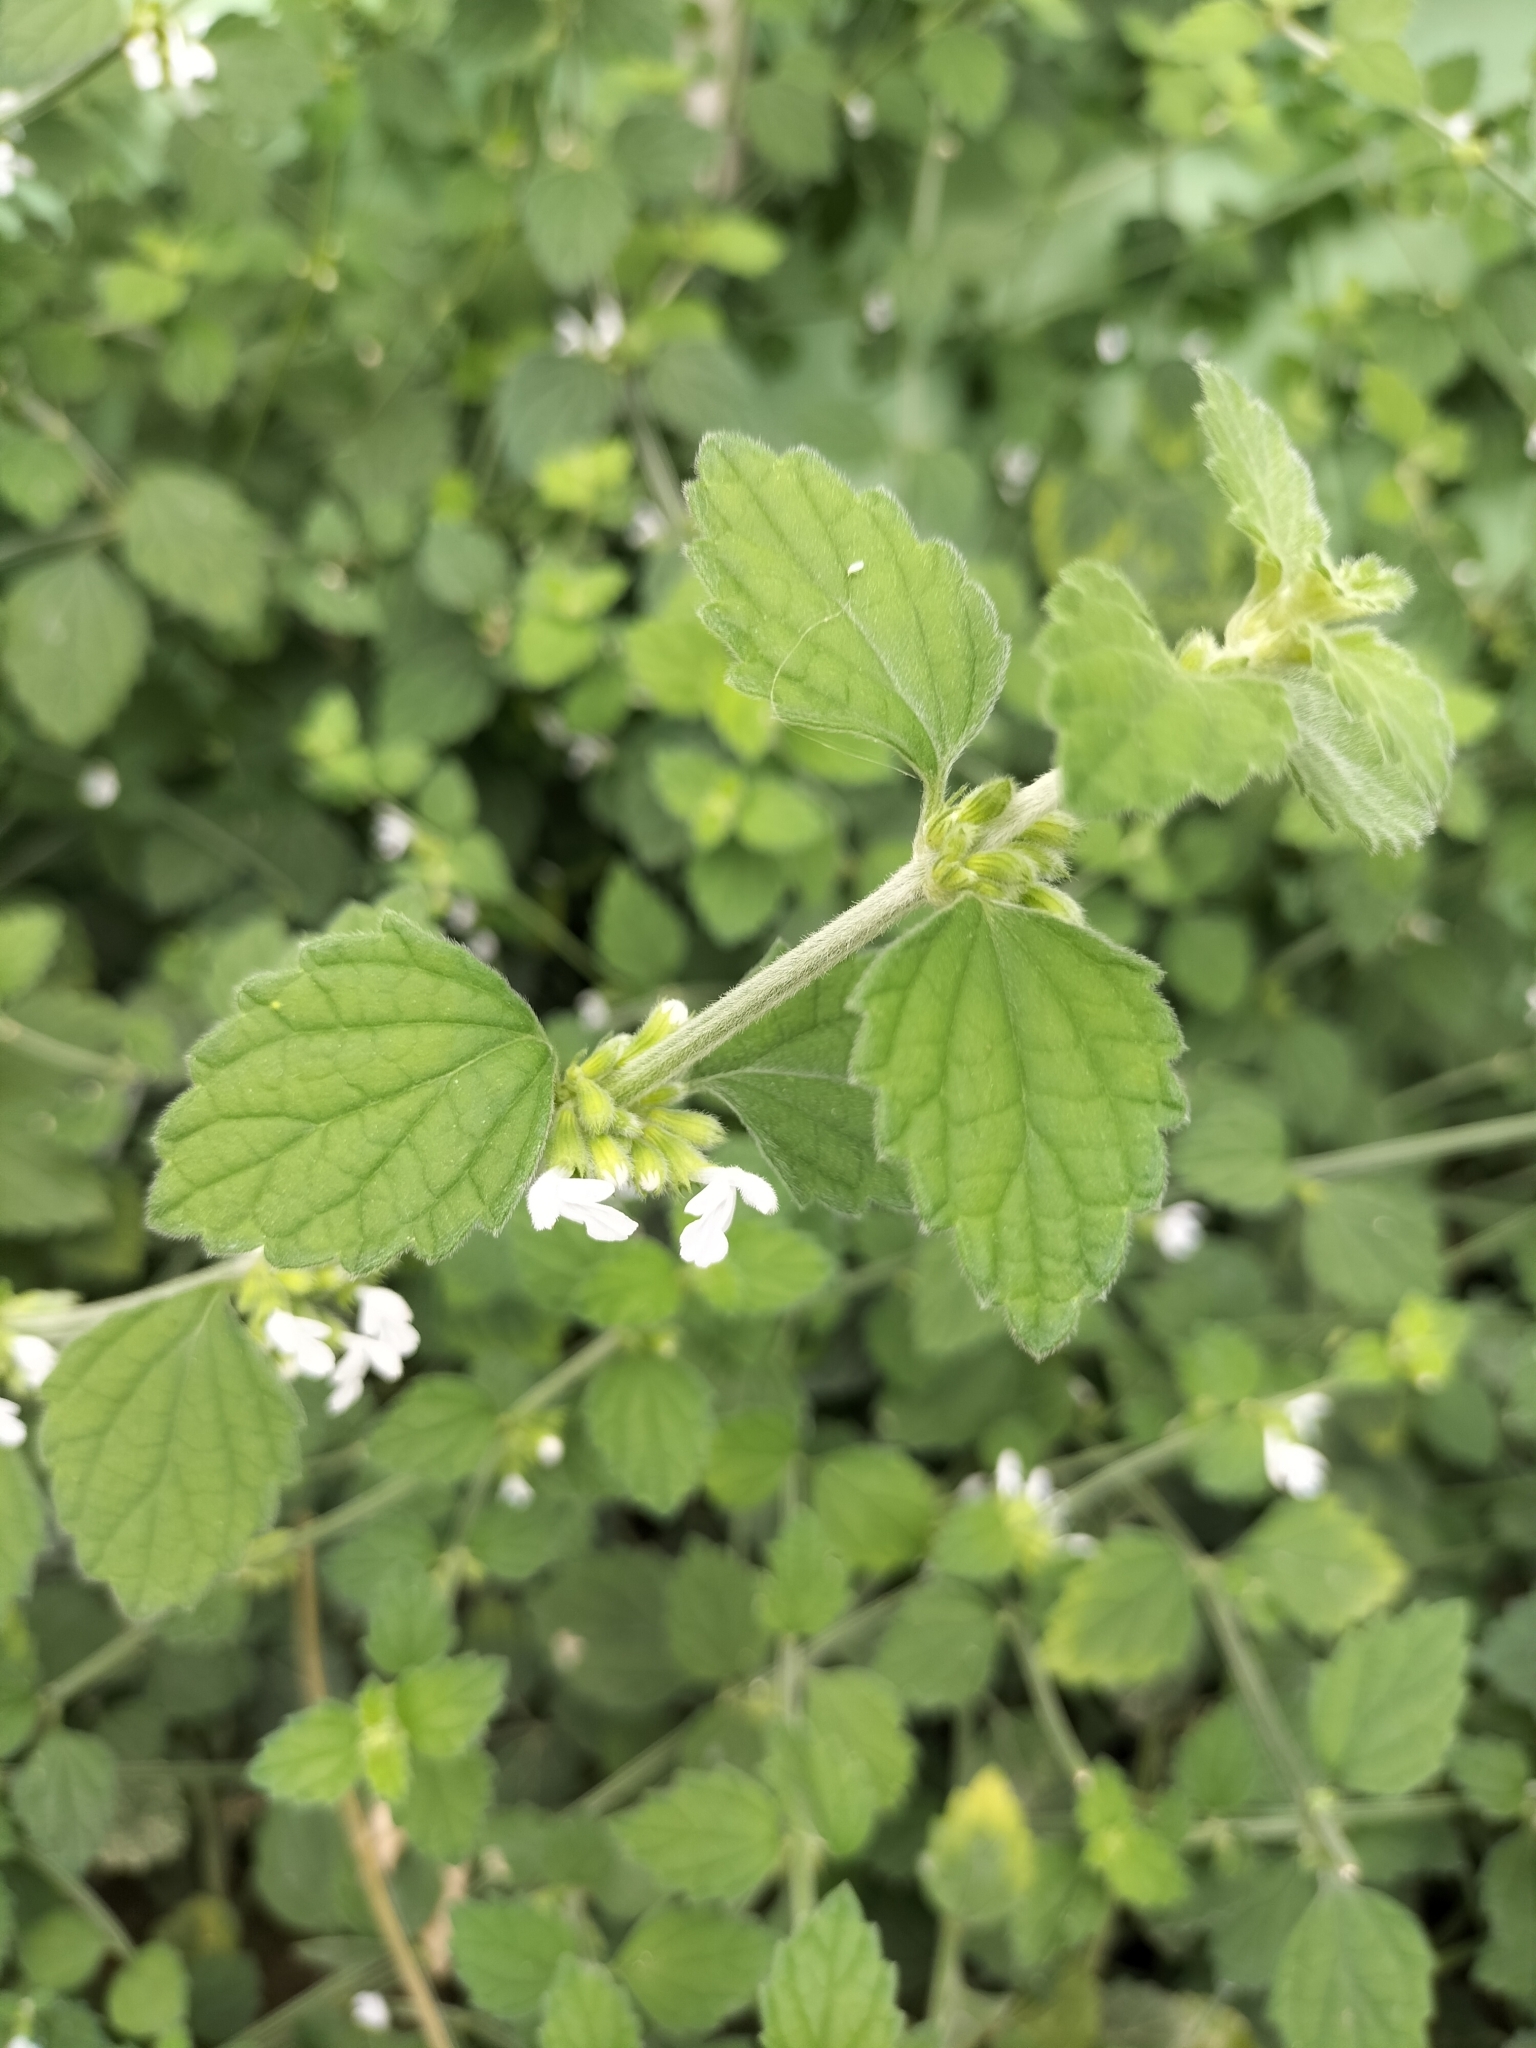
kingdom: Plantae
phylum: Tracheophyta
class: Magnoliopsida
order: Lamiales
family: Lamiaceae
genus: Leucas
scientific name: Leucas chinensis
